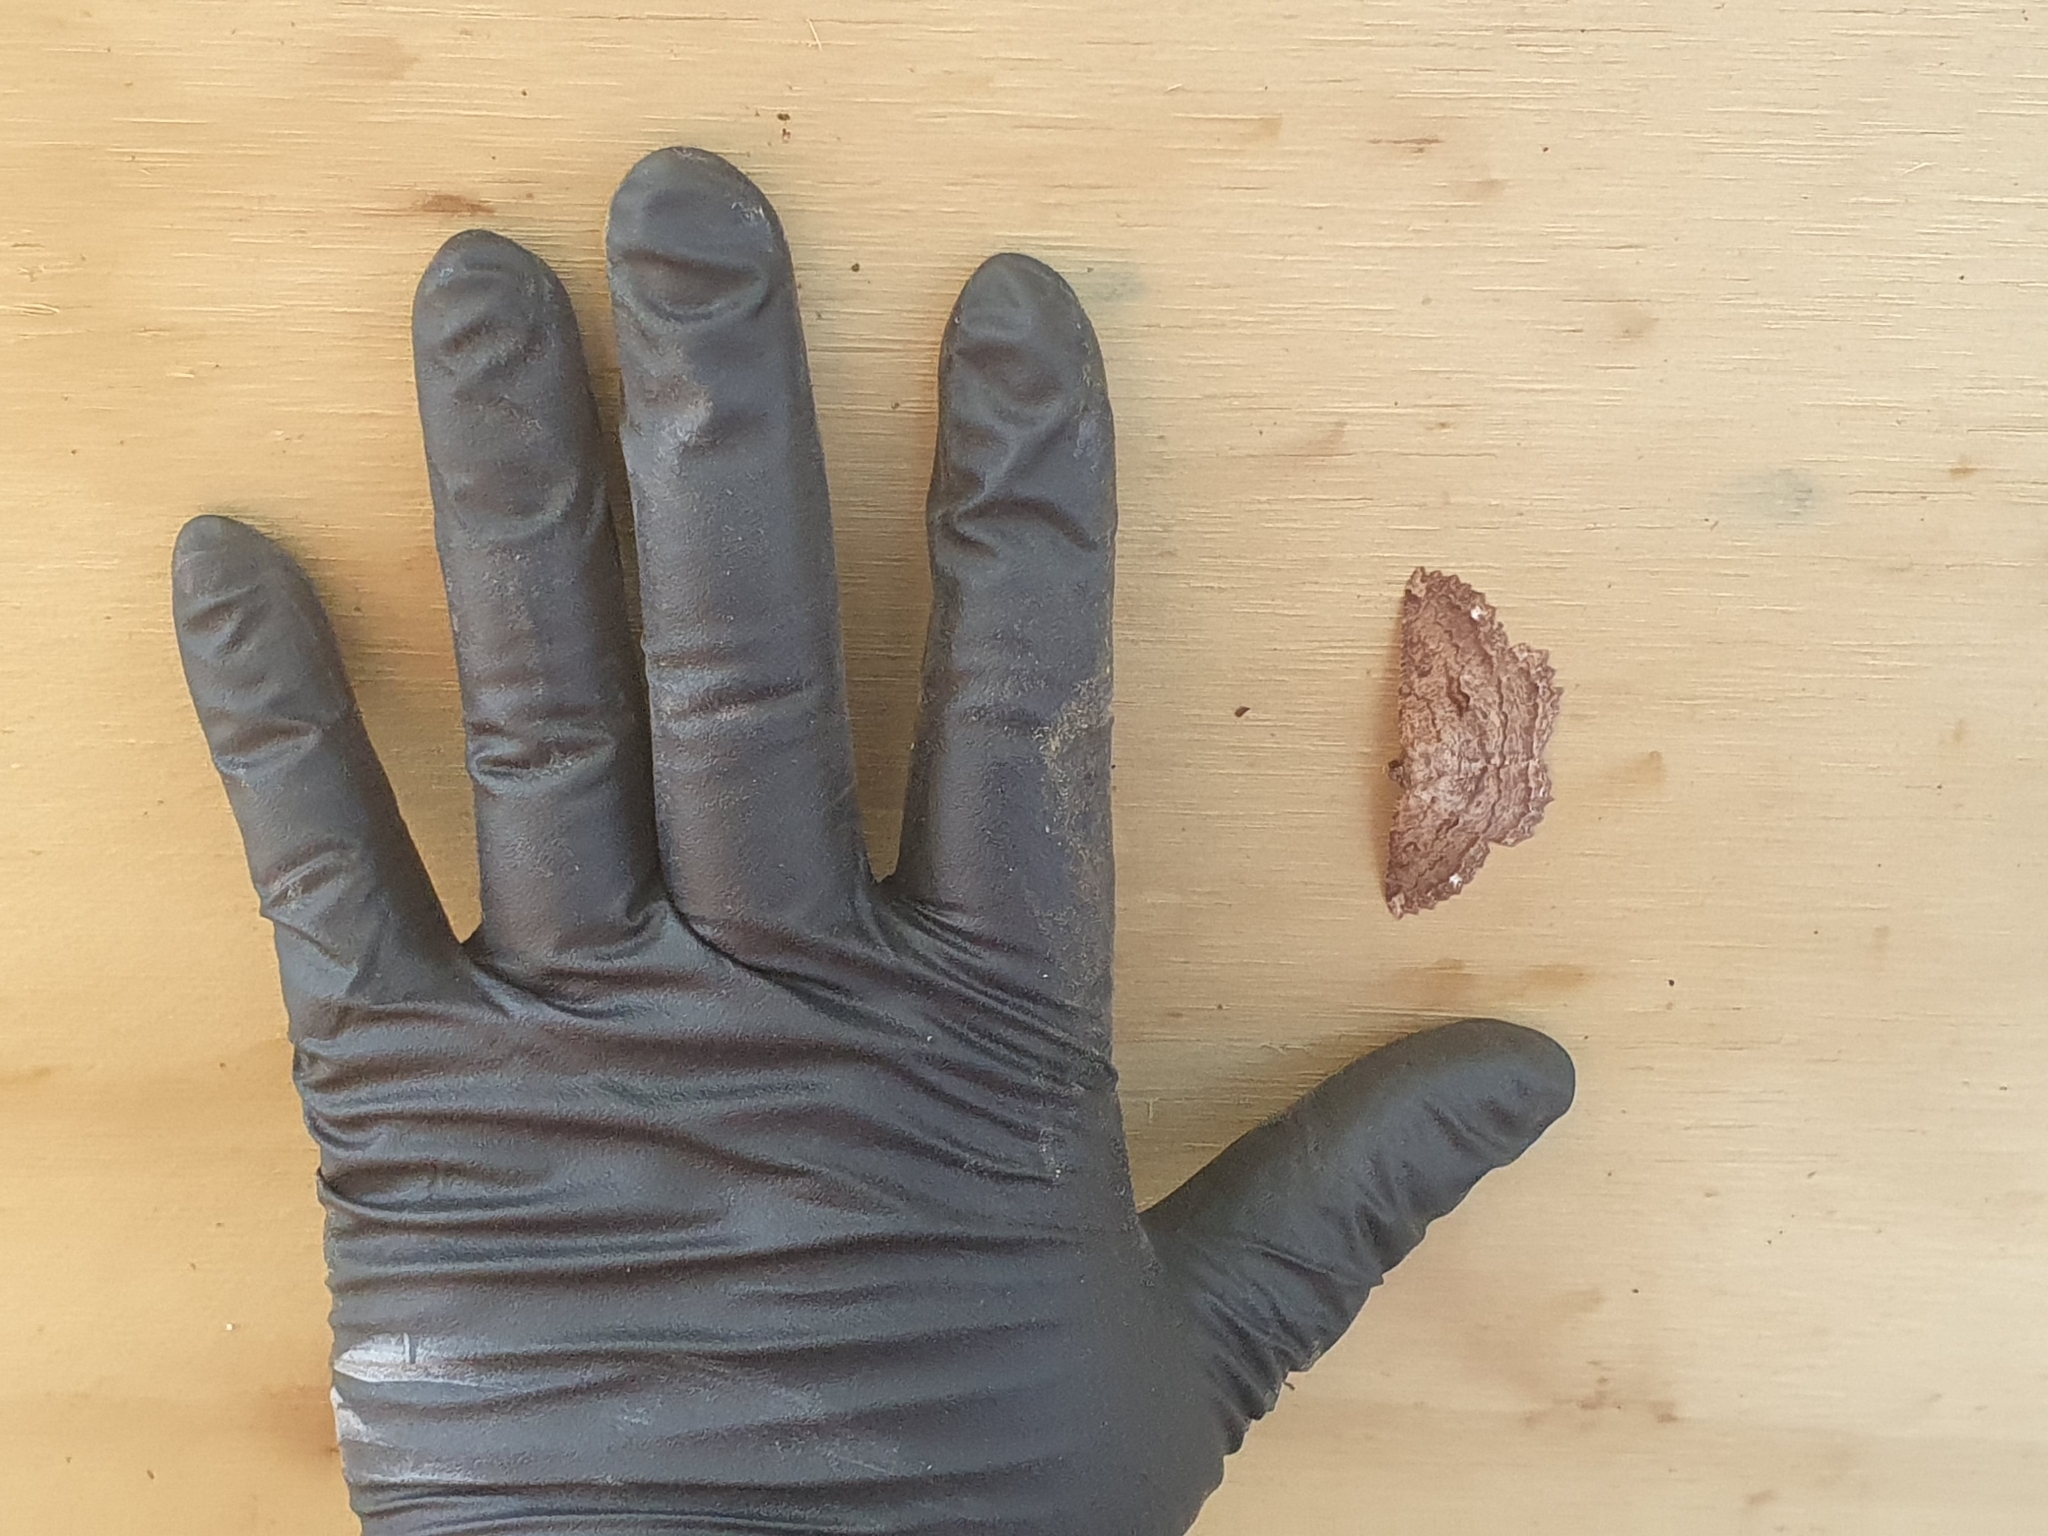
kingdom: Animalia
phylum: Arthropoda
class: Insecta
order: Lepidoptera
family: Geometridae
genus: Gellonia
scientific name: Gellonia dejectaria
